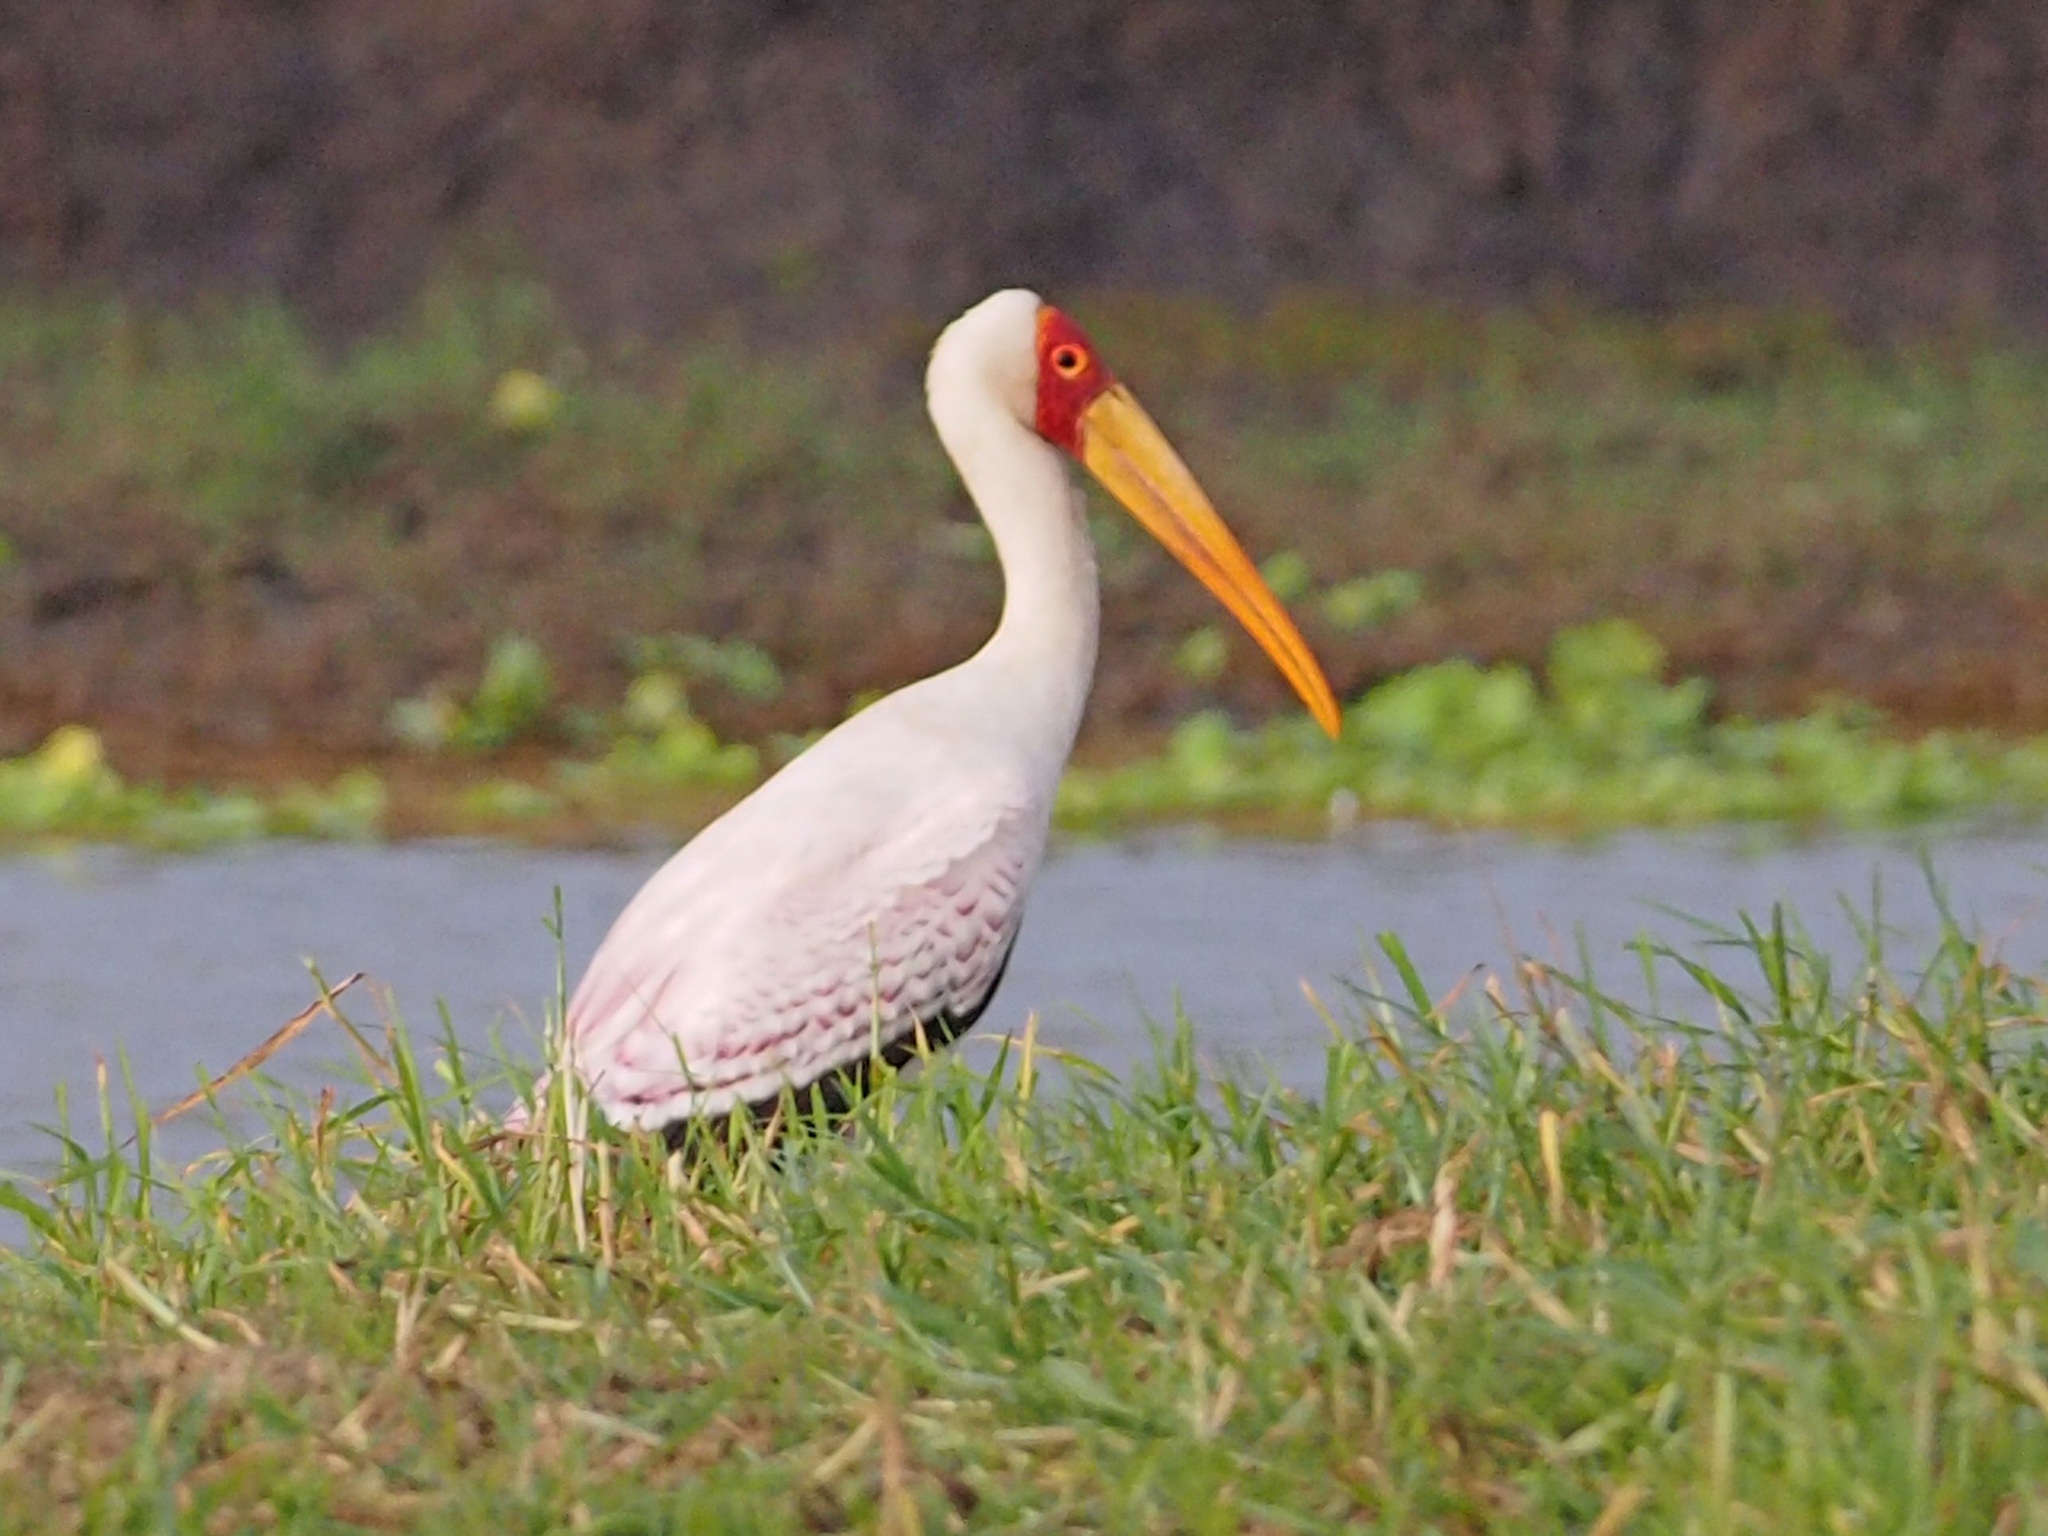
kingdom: Animalia
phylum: Chordata
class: Aves
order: Ciconiiformes
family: Ciconiidae
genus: Mycteria
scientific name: Mycteria ibis
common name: Yellow-billed stork
